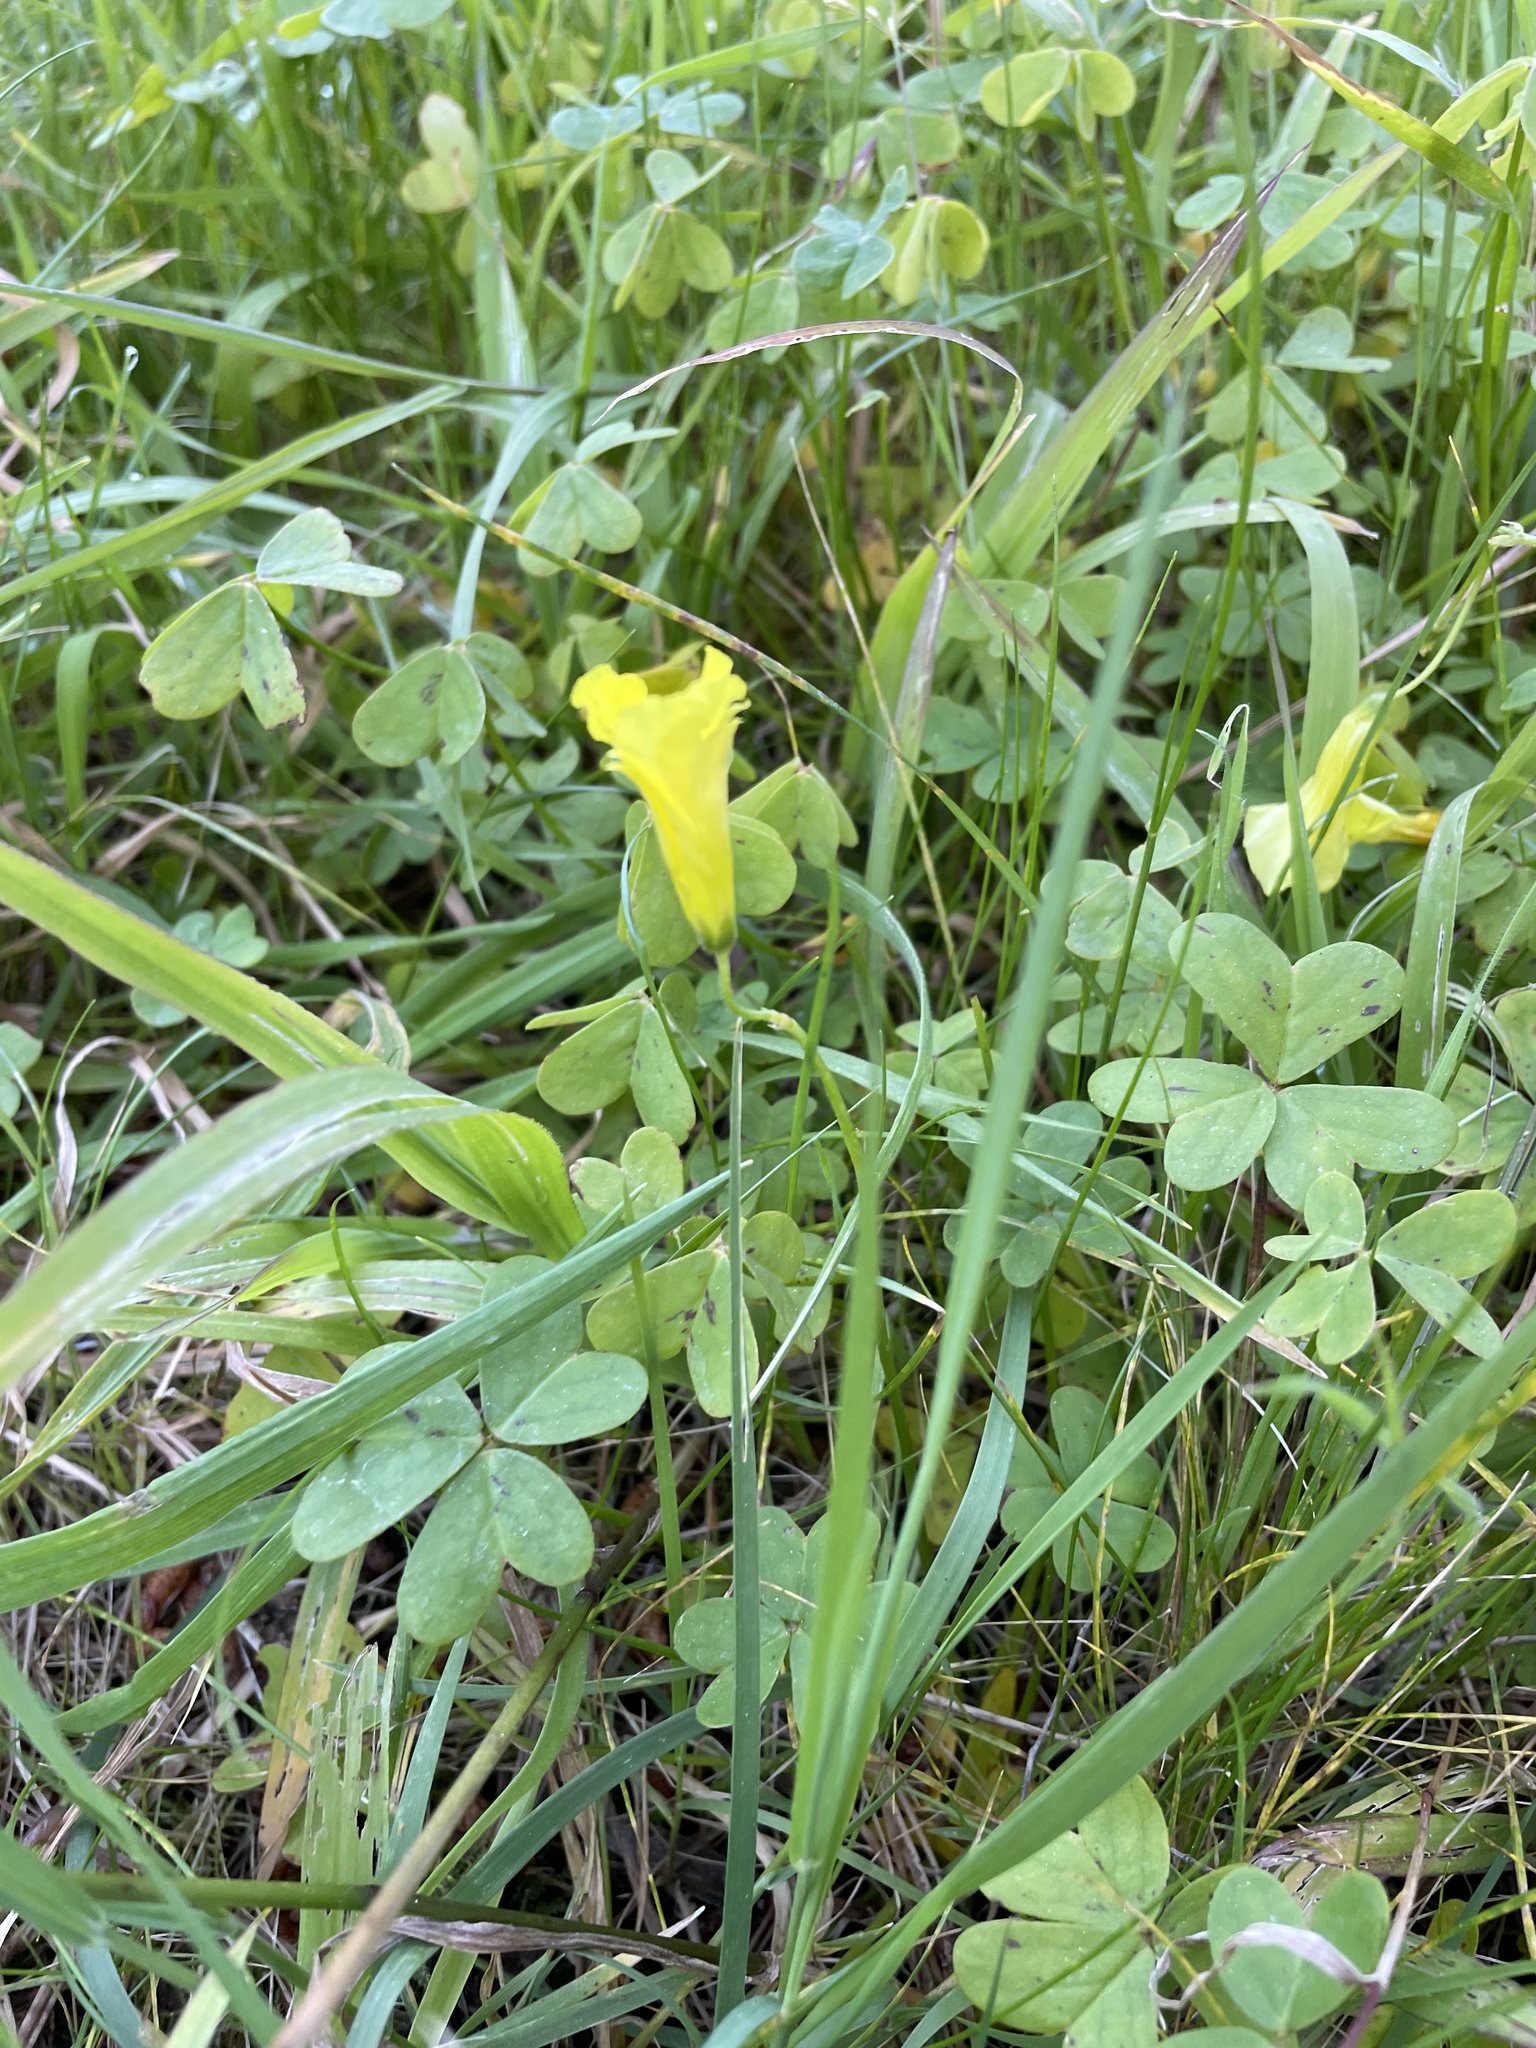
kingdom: Plantae
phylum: Tracheophyta
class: Magnoliopsida
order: Oxalidales
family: Oxalidaceae
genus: Oxalis
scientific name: Oxalis pes-caprae
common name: Bermuda-buttercup
